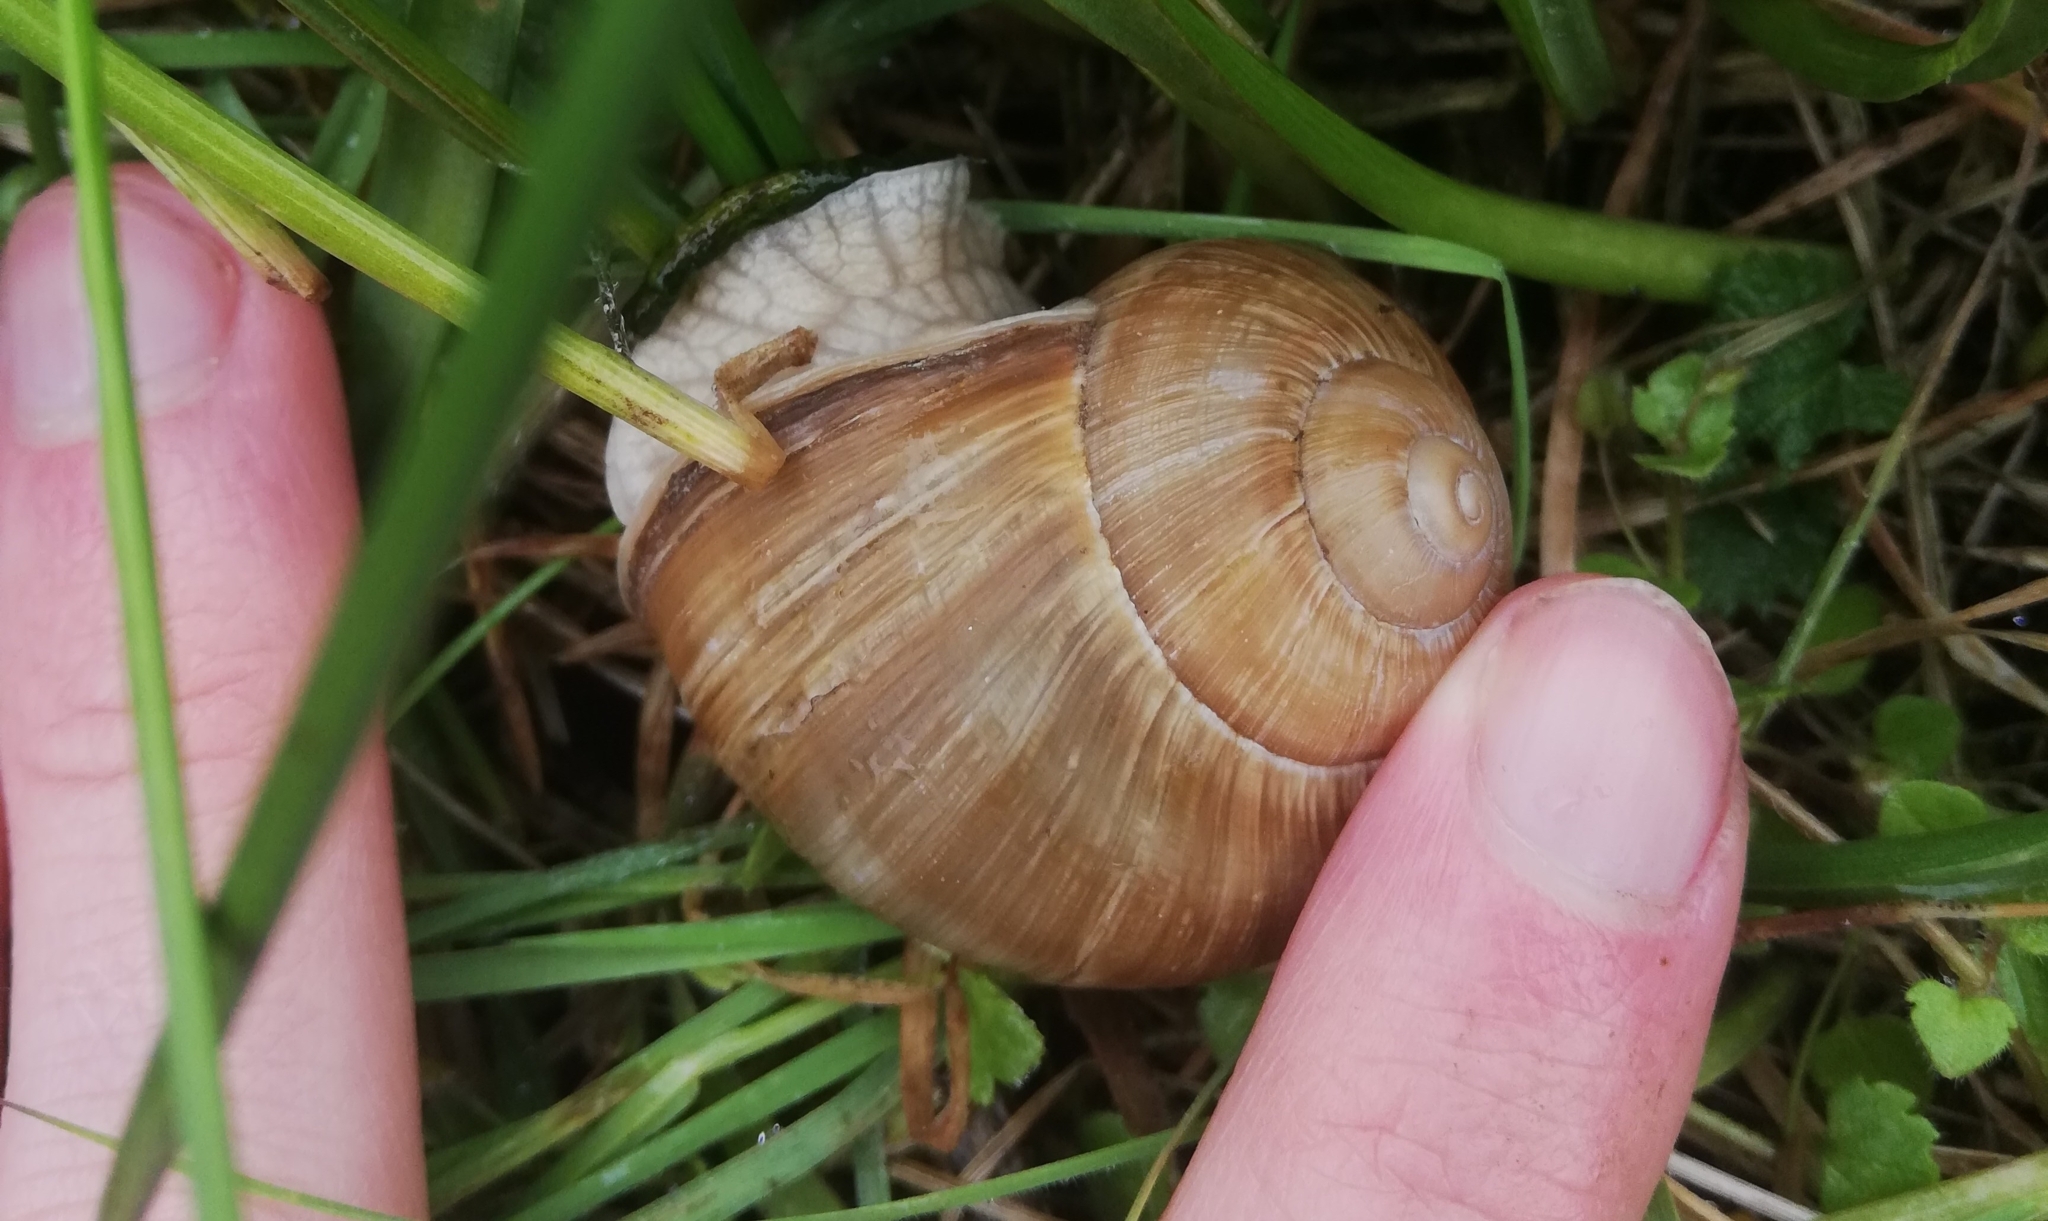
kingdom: Animalia
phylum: Mollusca
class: Gastropoda
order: Stylommatophora
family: Helicidae
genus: Helix
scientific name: Helix pomatia
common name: Roman snail
